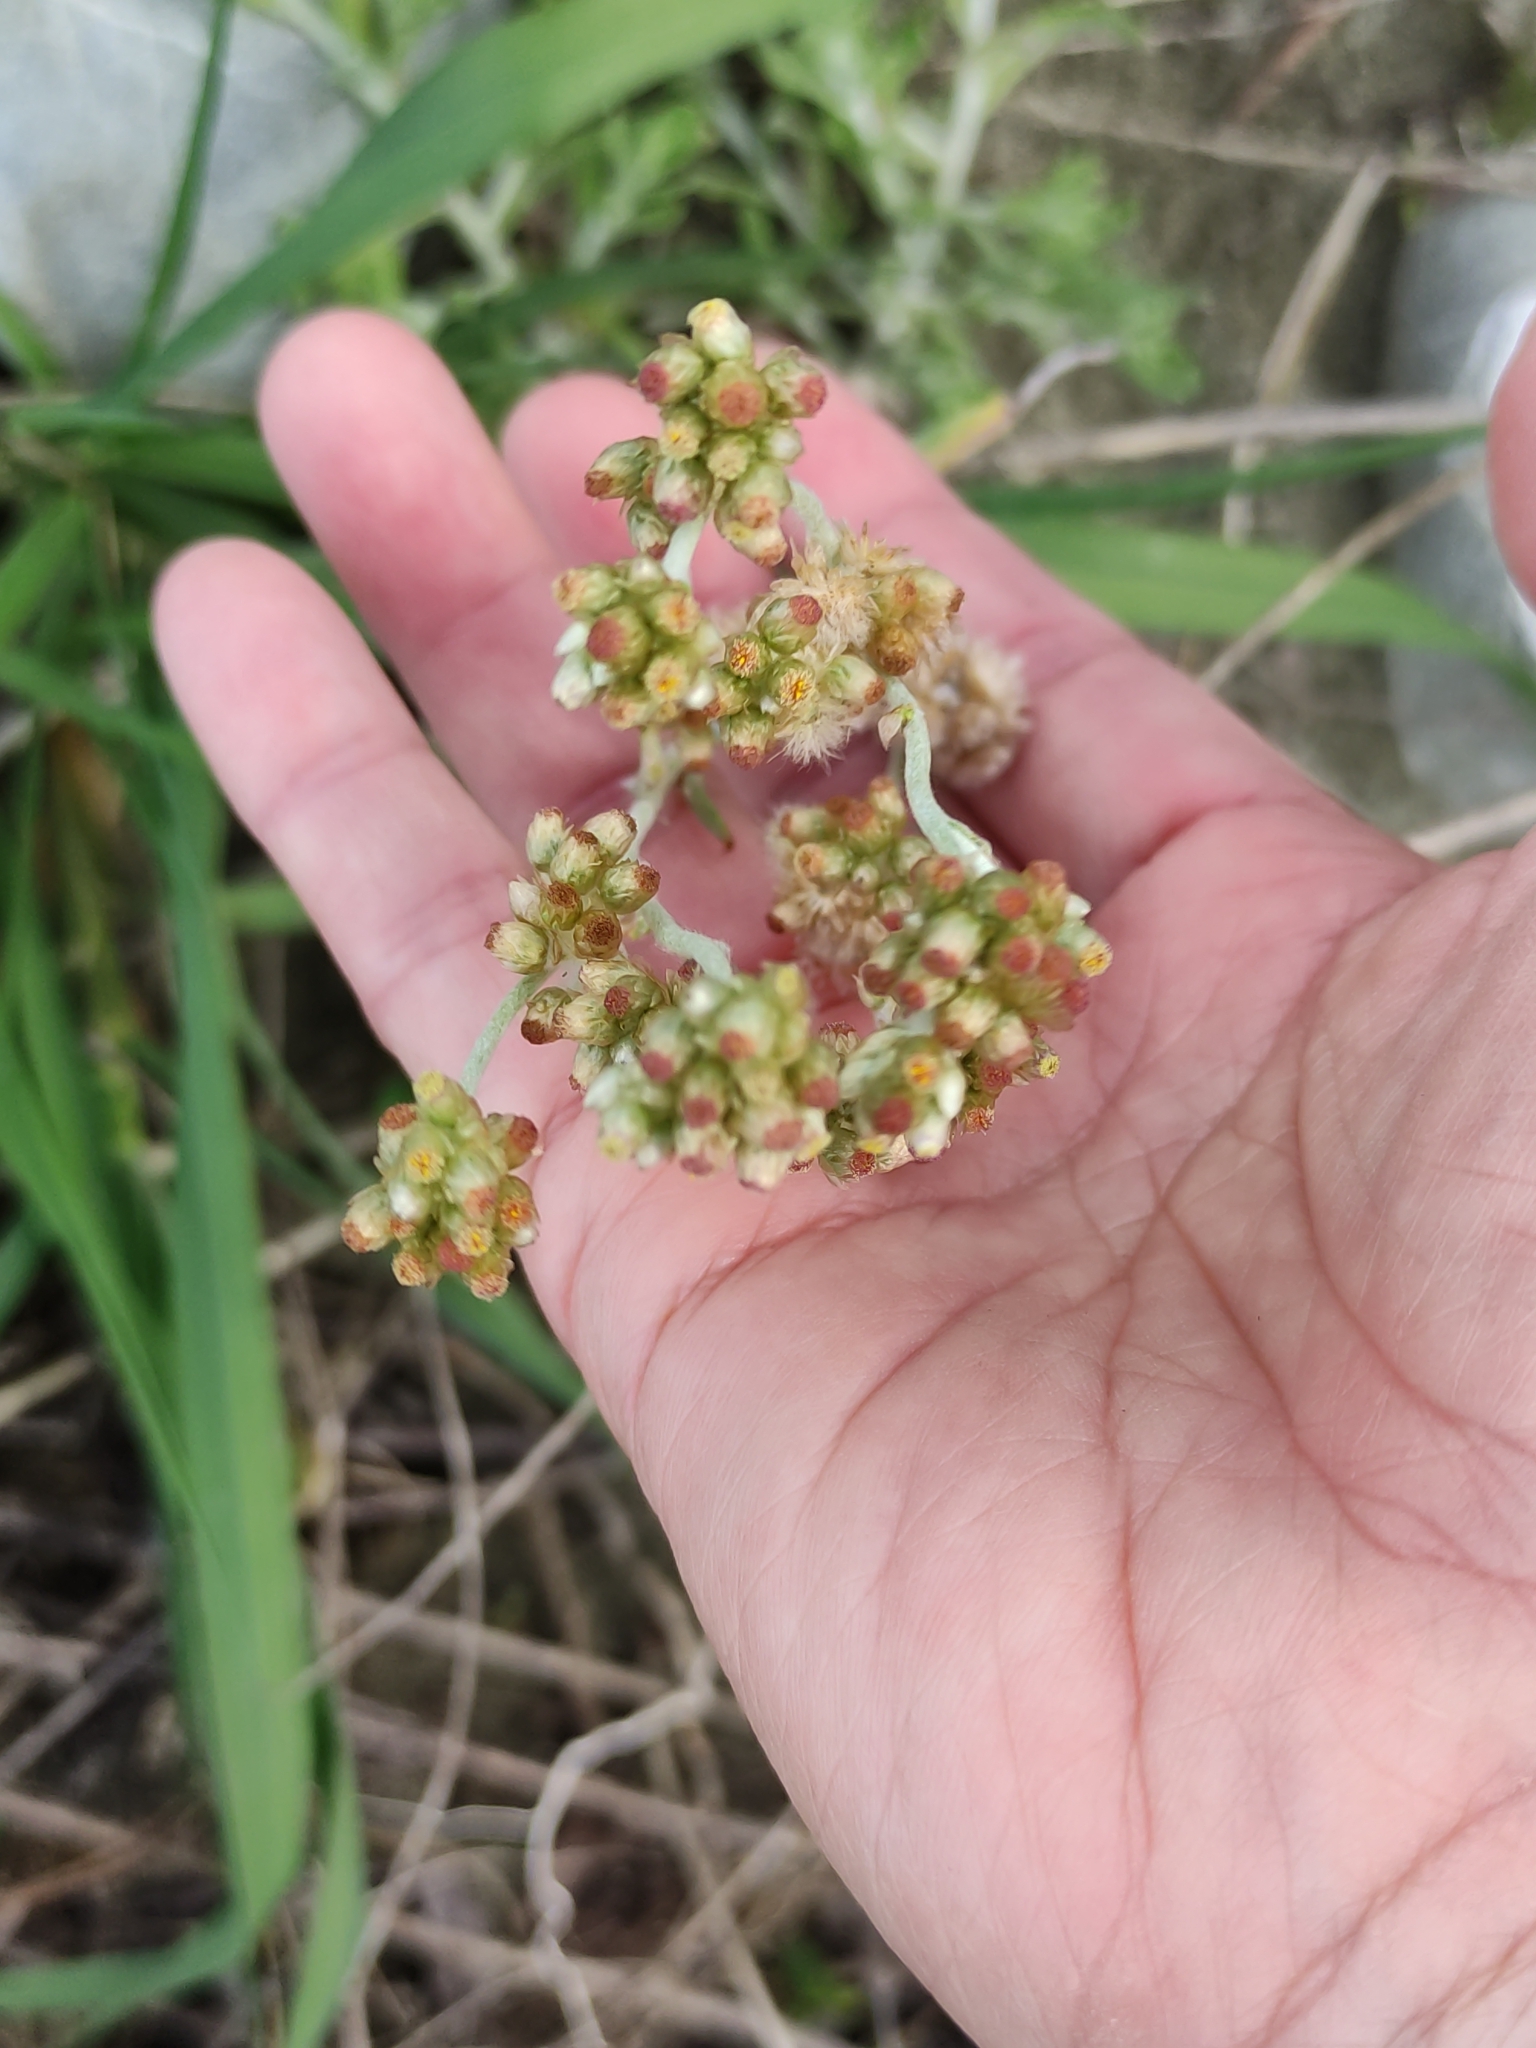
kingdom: Plantae
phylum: Tracheophyta
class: Magnoliopsida
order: Asterales
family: Asteraceae
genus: Helichrysum
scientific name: Helichrysum luteoalbum
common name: Daisy
